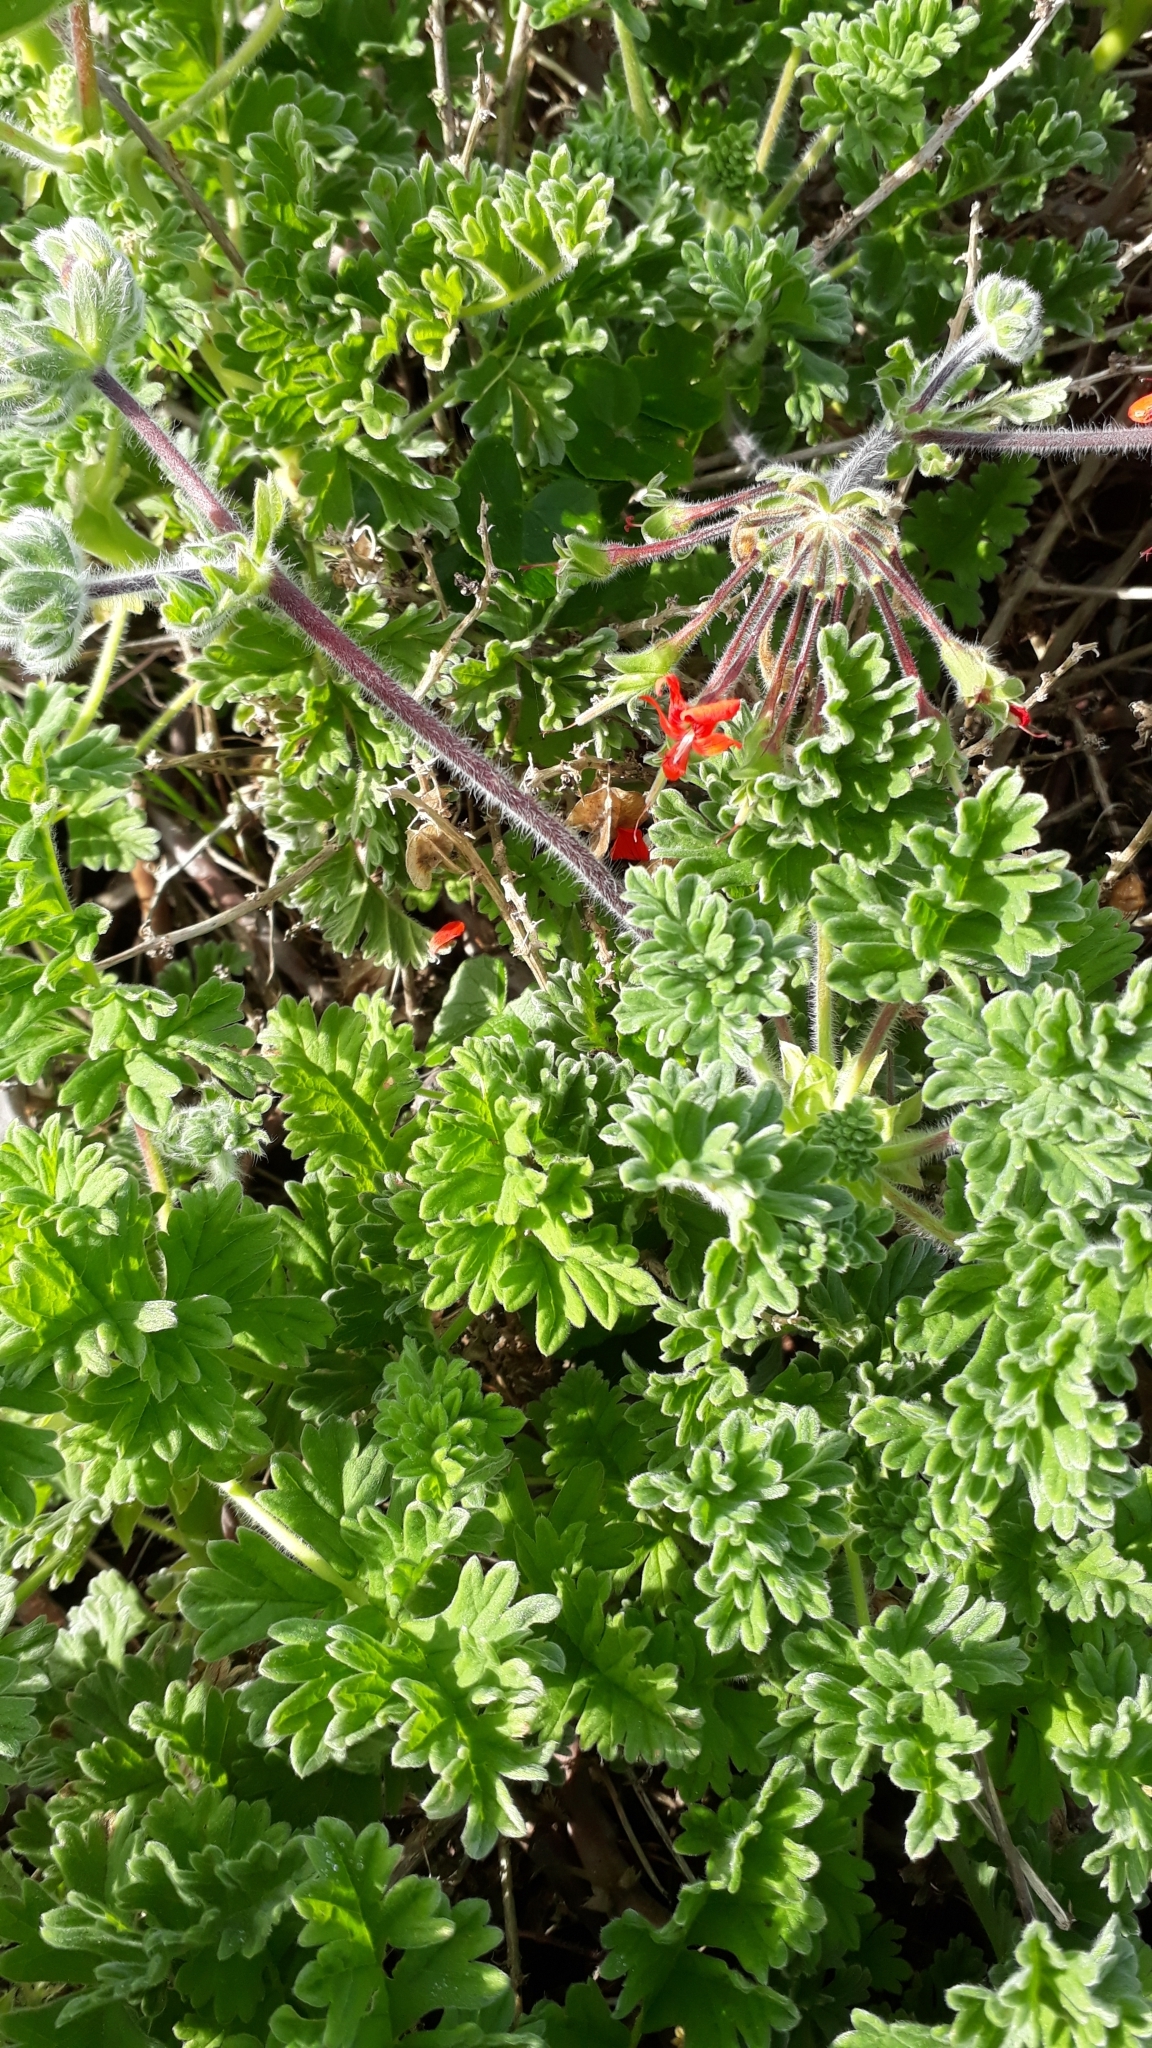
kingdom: Plantae
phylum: Tracheophyta
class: Magnoliopsida
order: Geraniales
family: Geraniaceae
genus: Pelargonium
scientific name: Pelargonium fulgidum
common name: Celandine-leaf pelargonium
